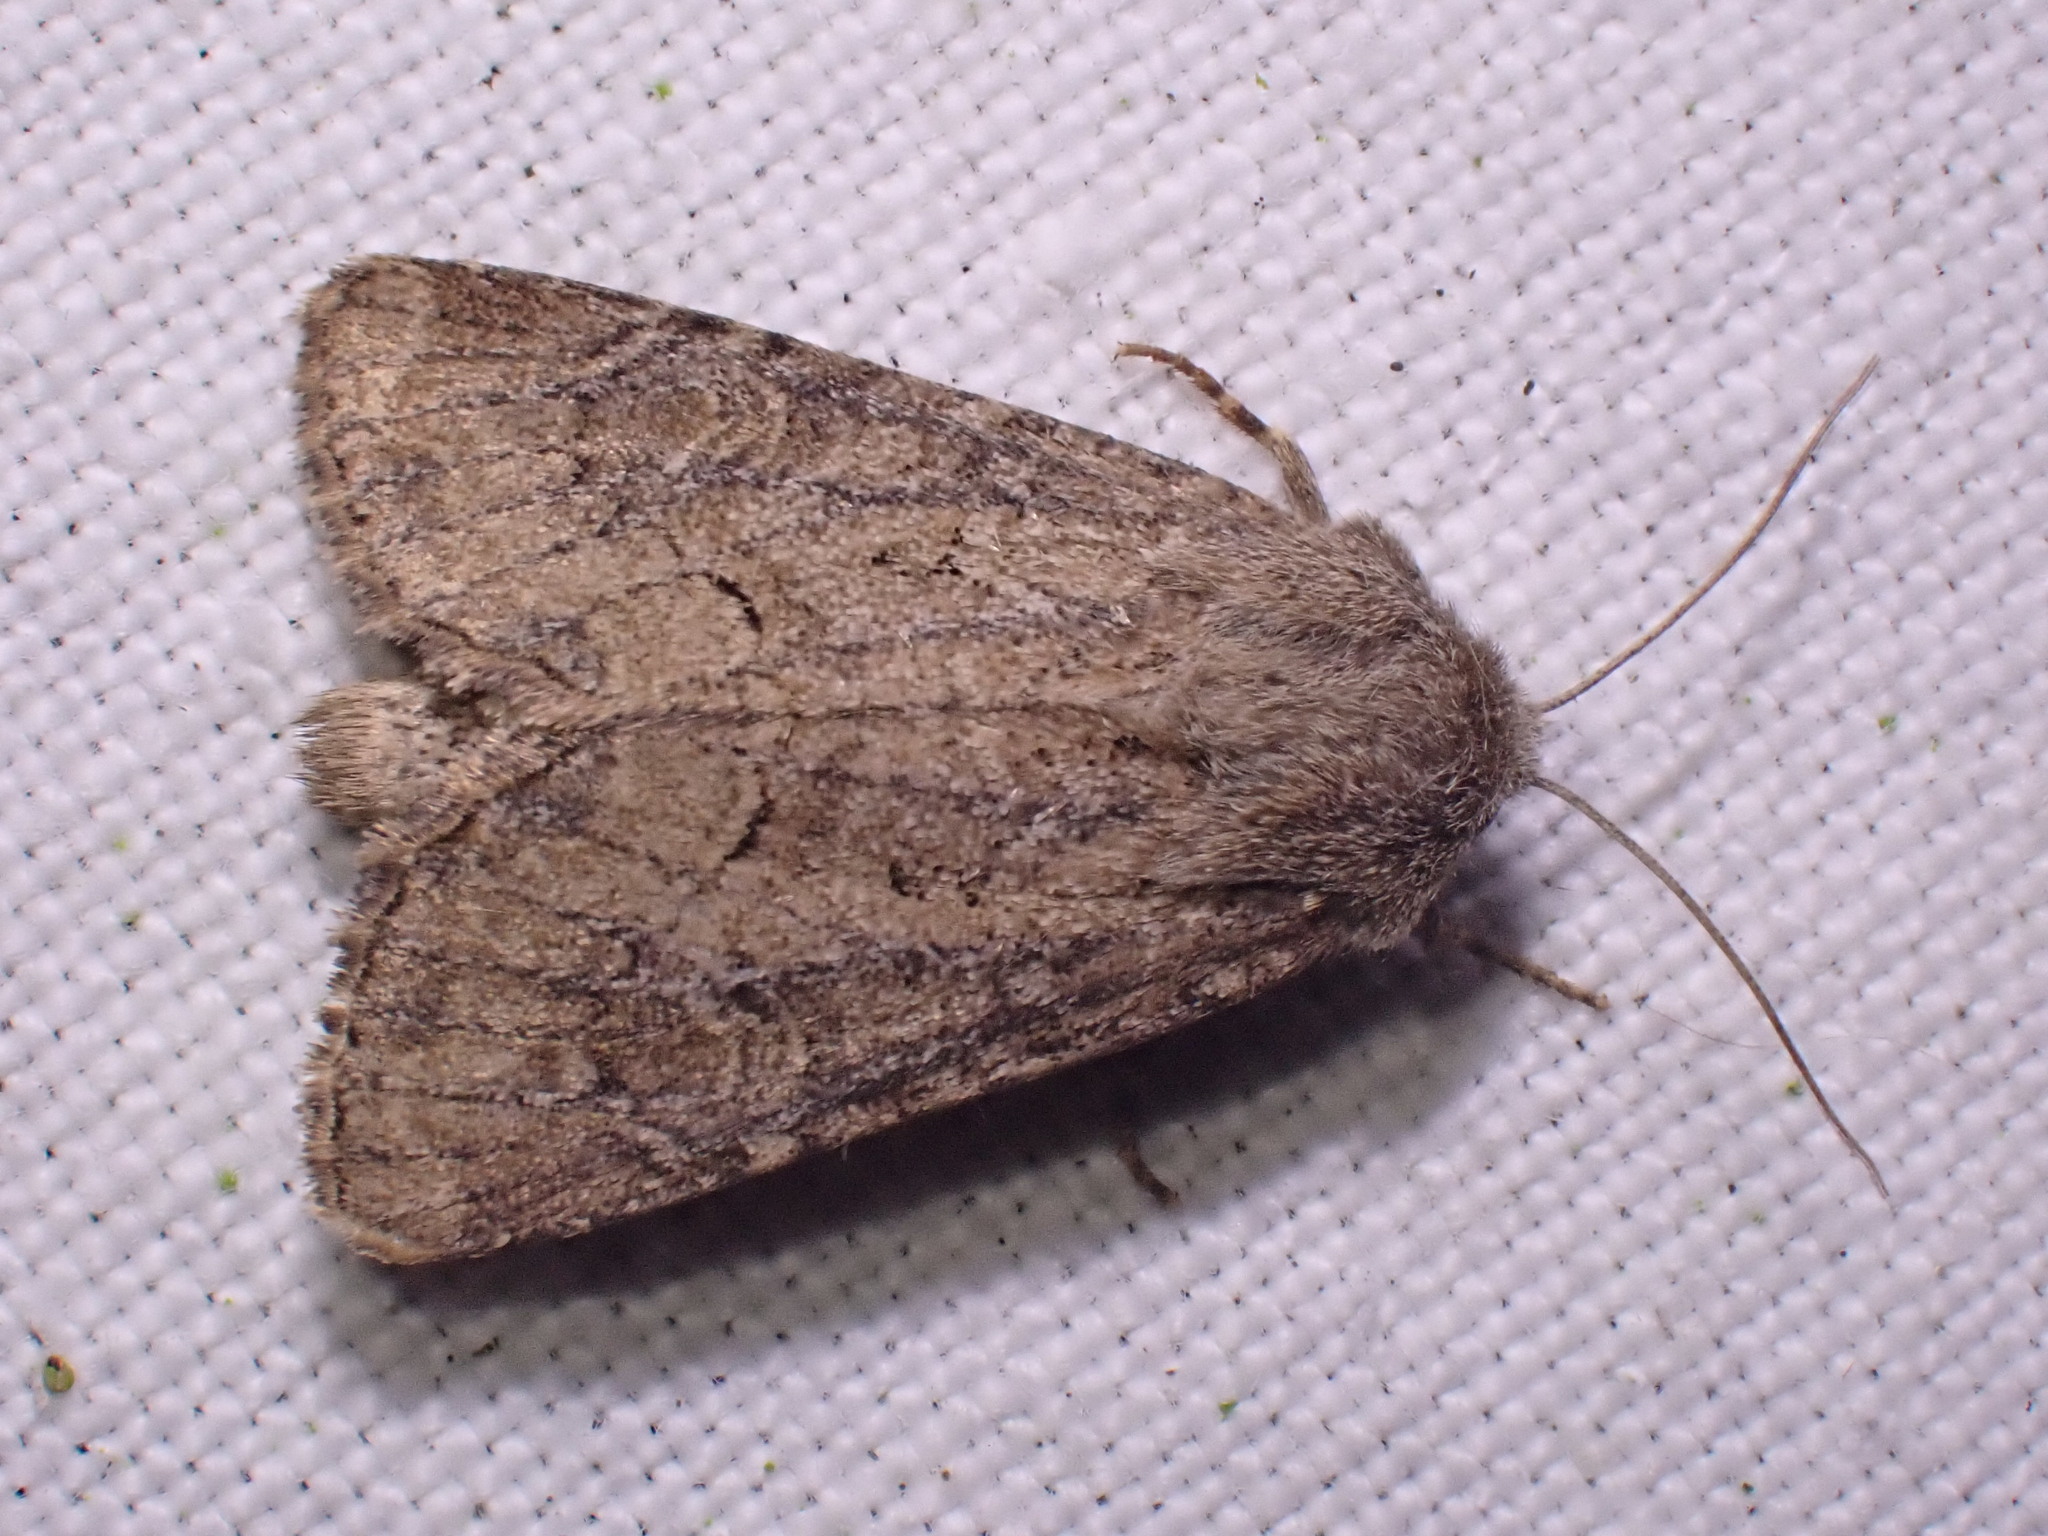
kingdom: Animalia
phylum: Arthropoda
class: Insecta
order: Lepidoptera
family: Noctuidae
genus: Luperina
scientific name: Luperina testacea
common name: Flounced rustic
